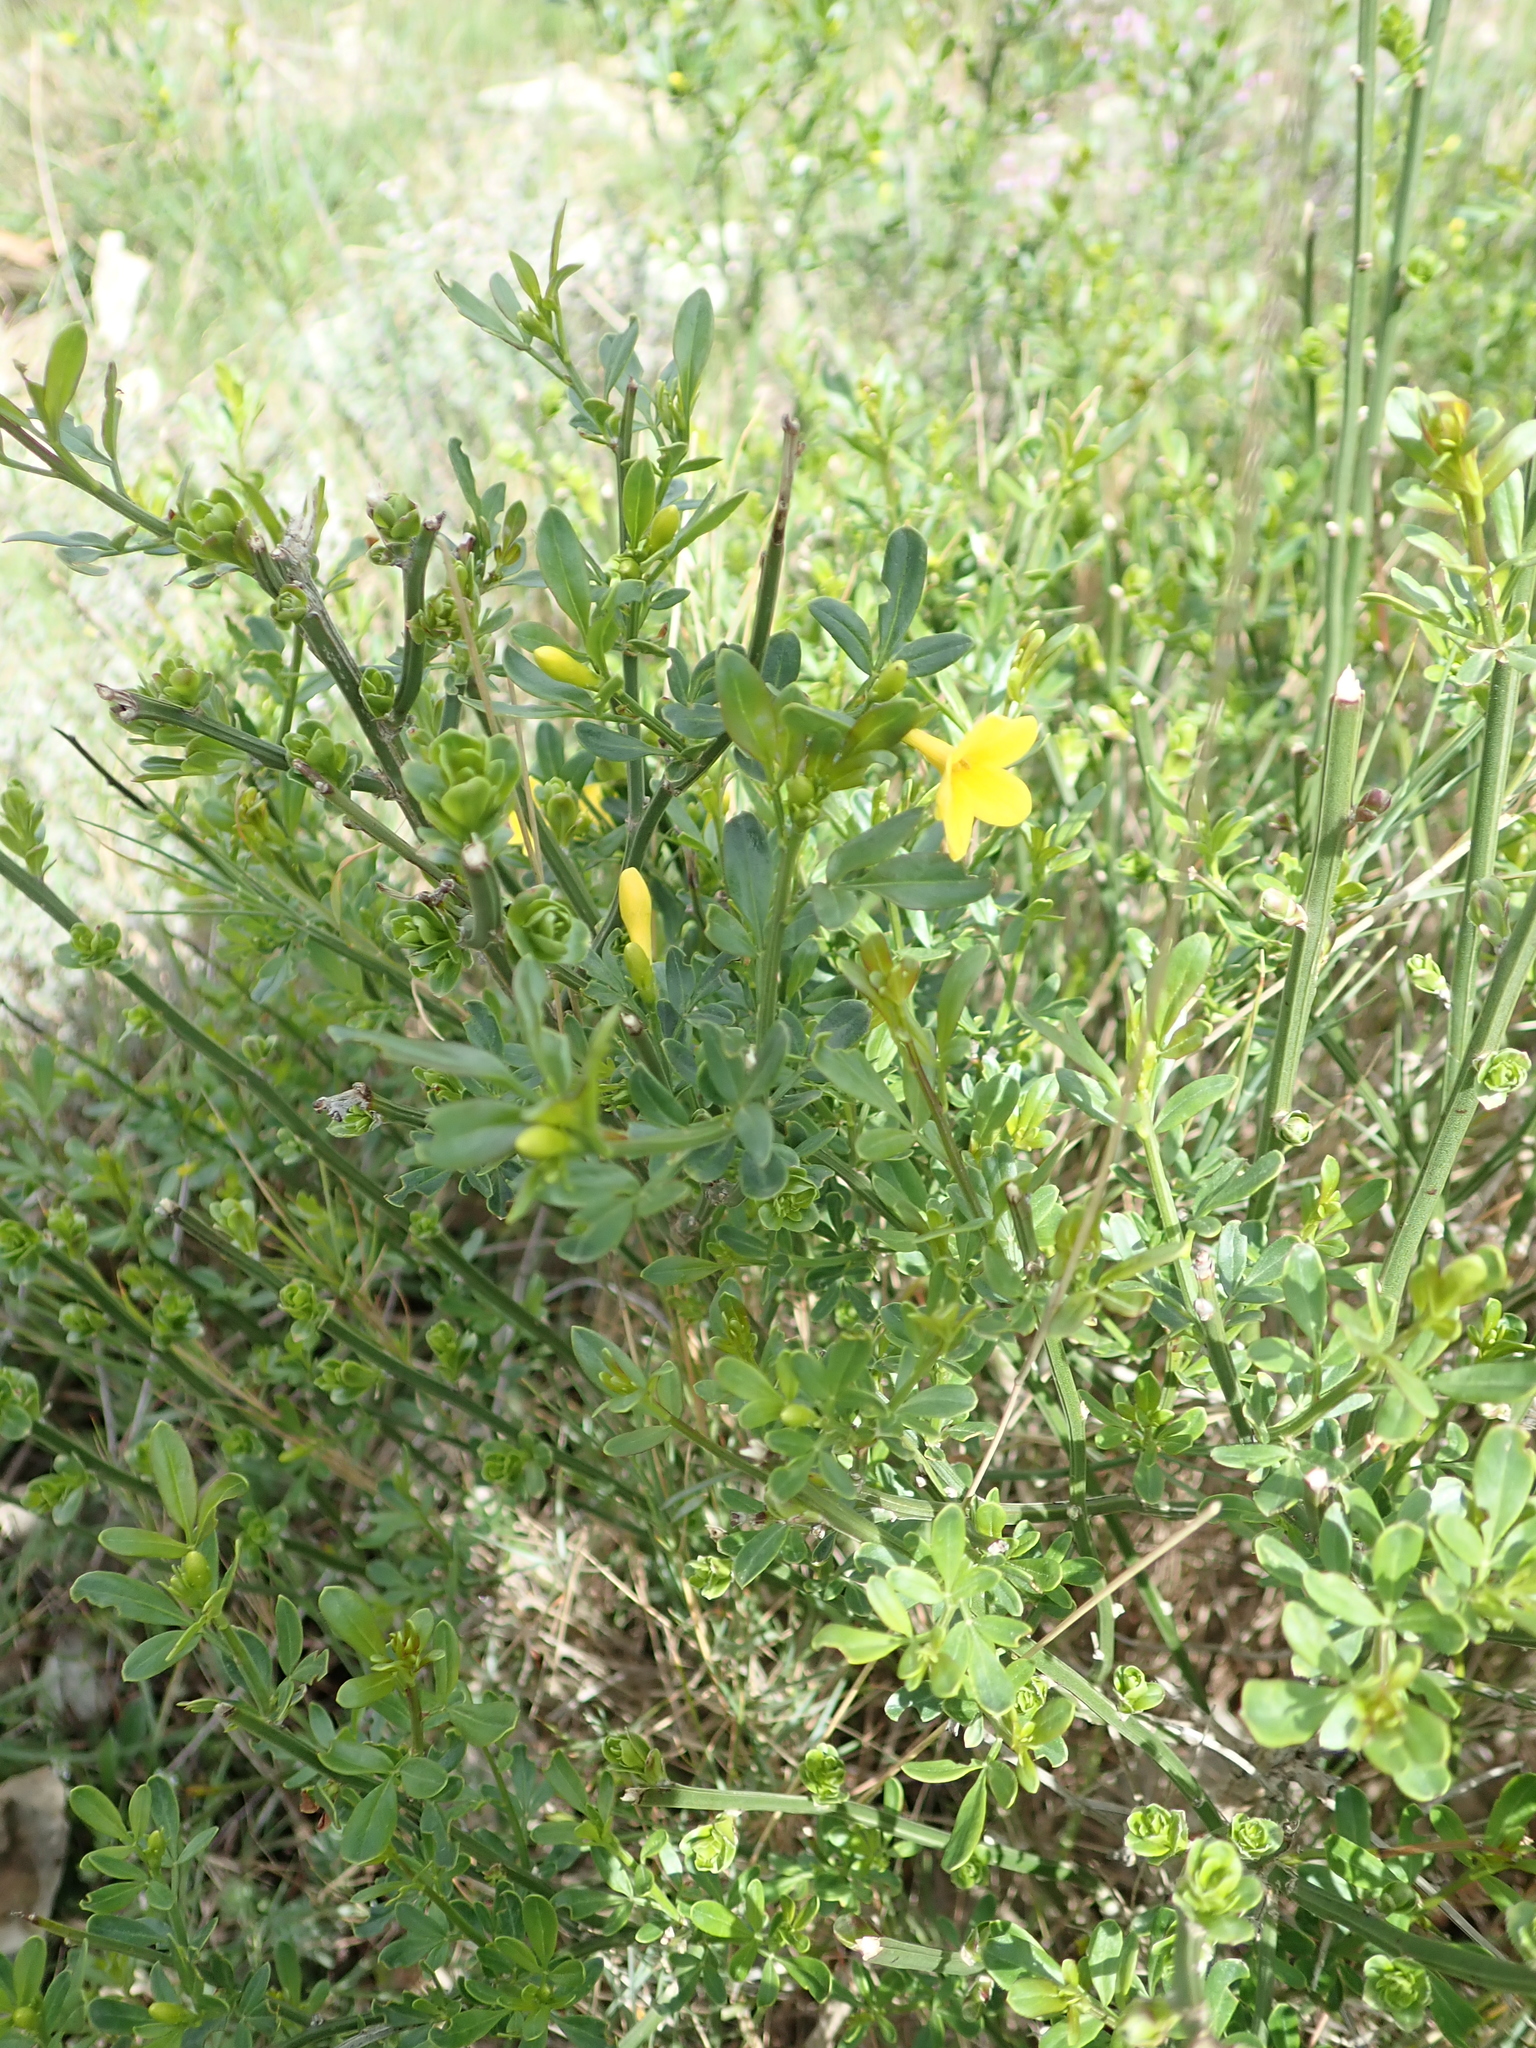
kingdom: Plantae
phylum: Tracheophyta
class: Magnoliopsida
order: Lamiales
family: Oleaceae
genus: Jasminum
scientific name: Jasminum nudiflorum
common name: Winter jasmine
